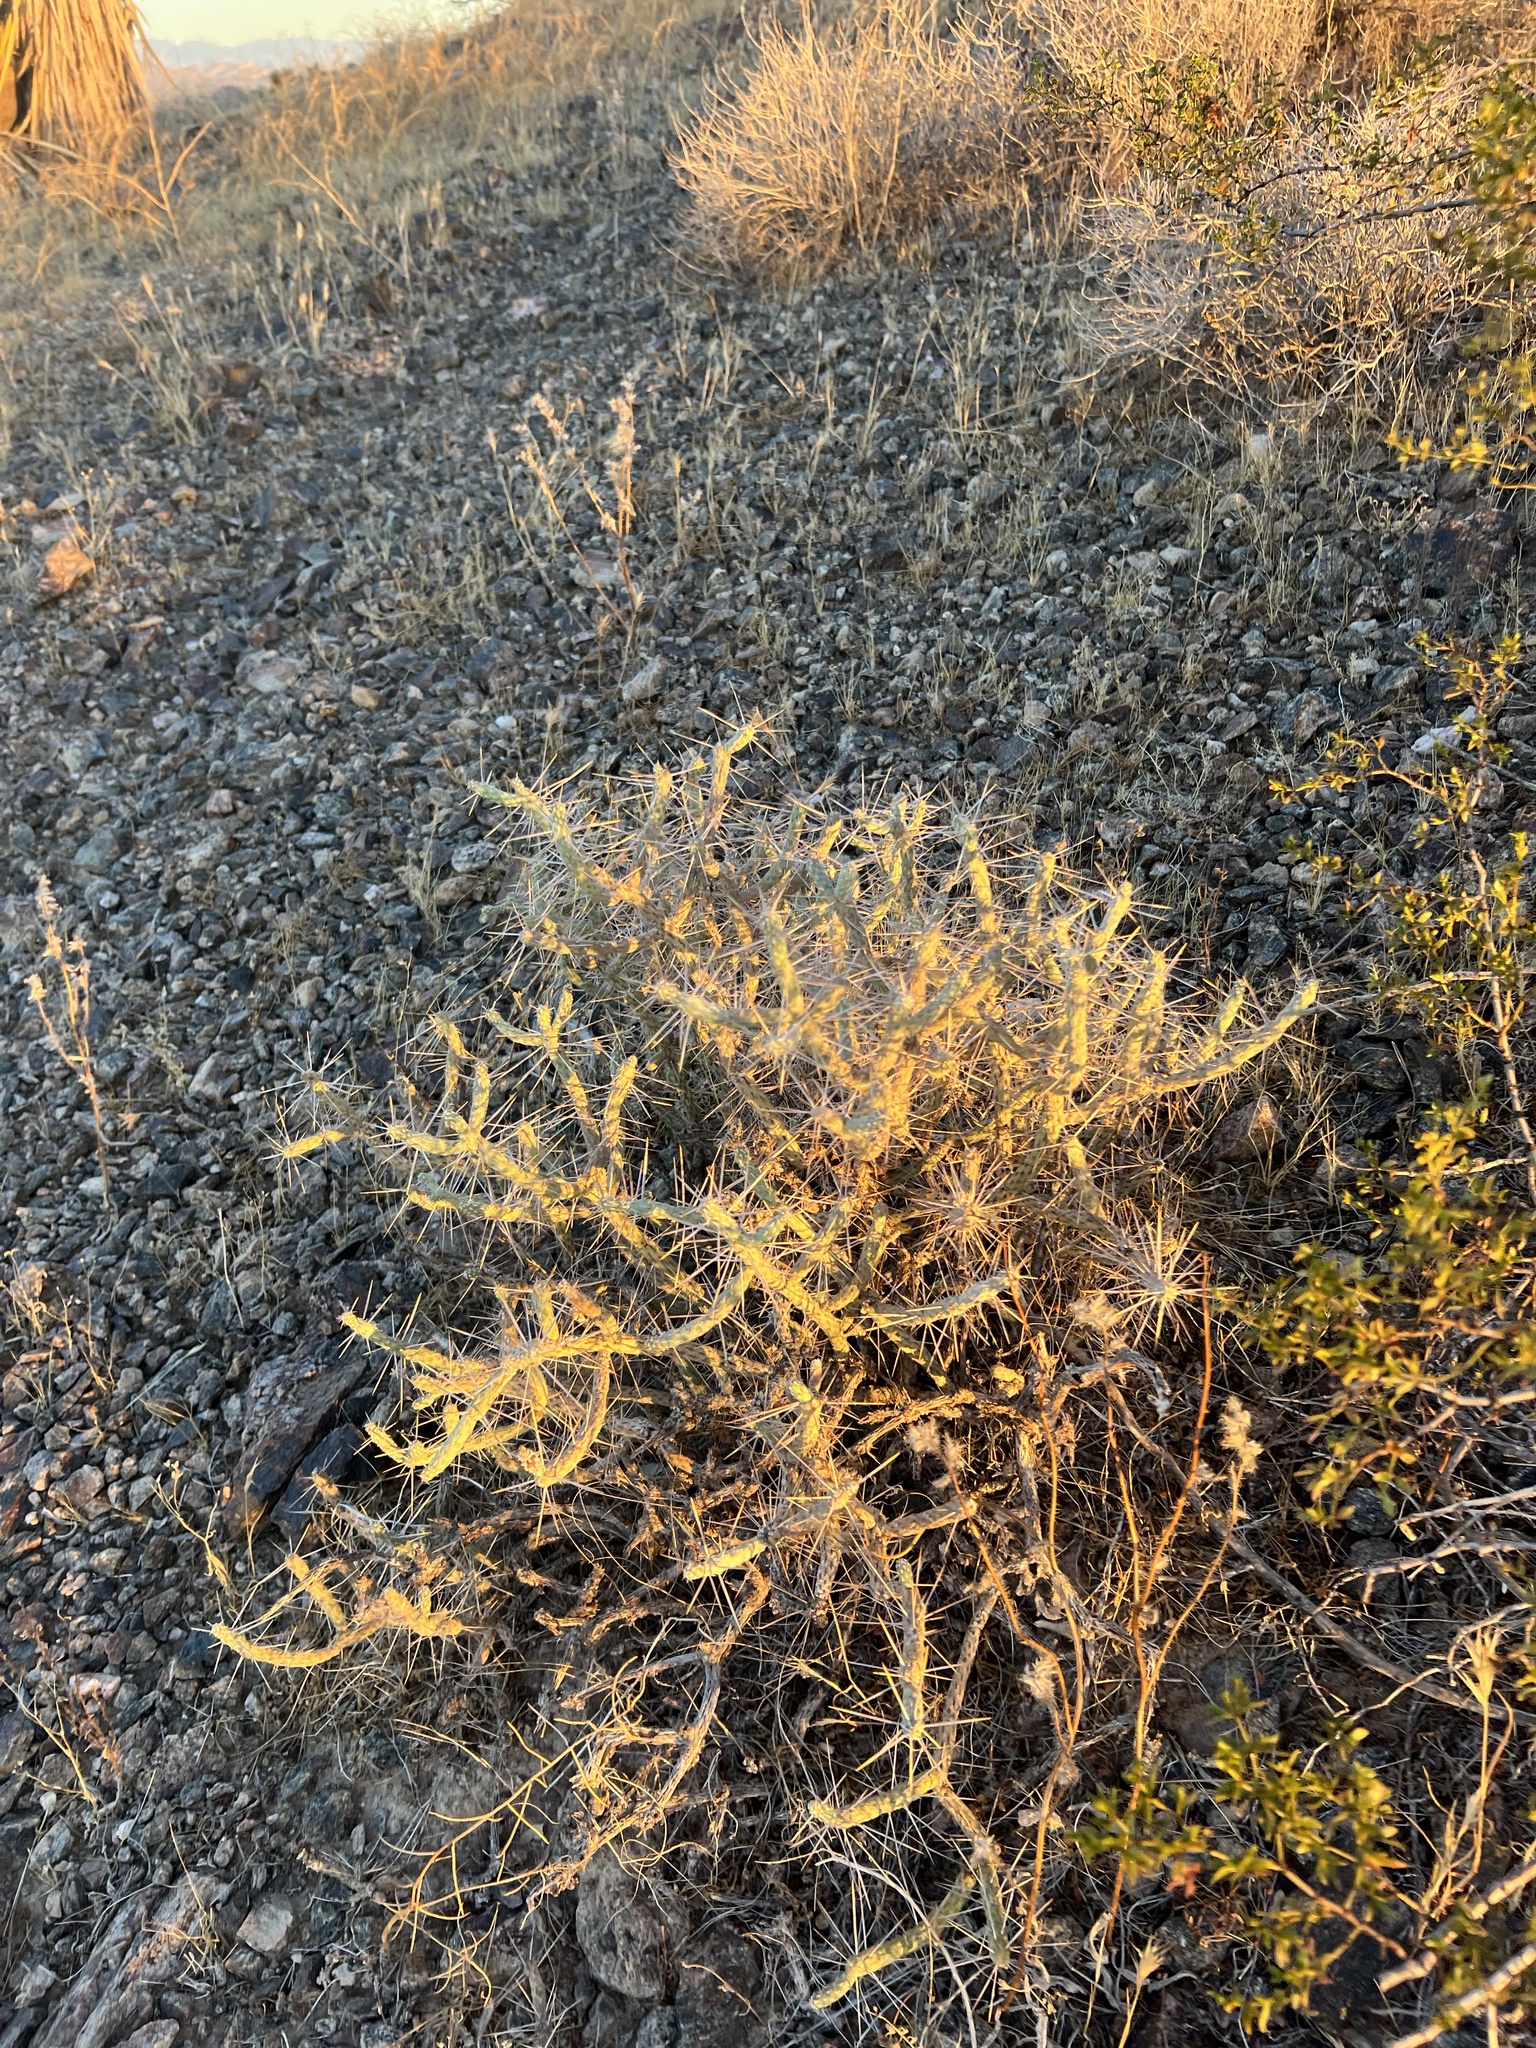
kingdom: Plantae
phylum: Tracheophyta
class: Magnoliopsida
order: Caryophyllales
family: Cactaceae
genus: Cylindropuntia
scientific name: Cylindropuntia ramosissima
